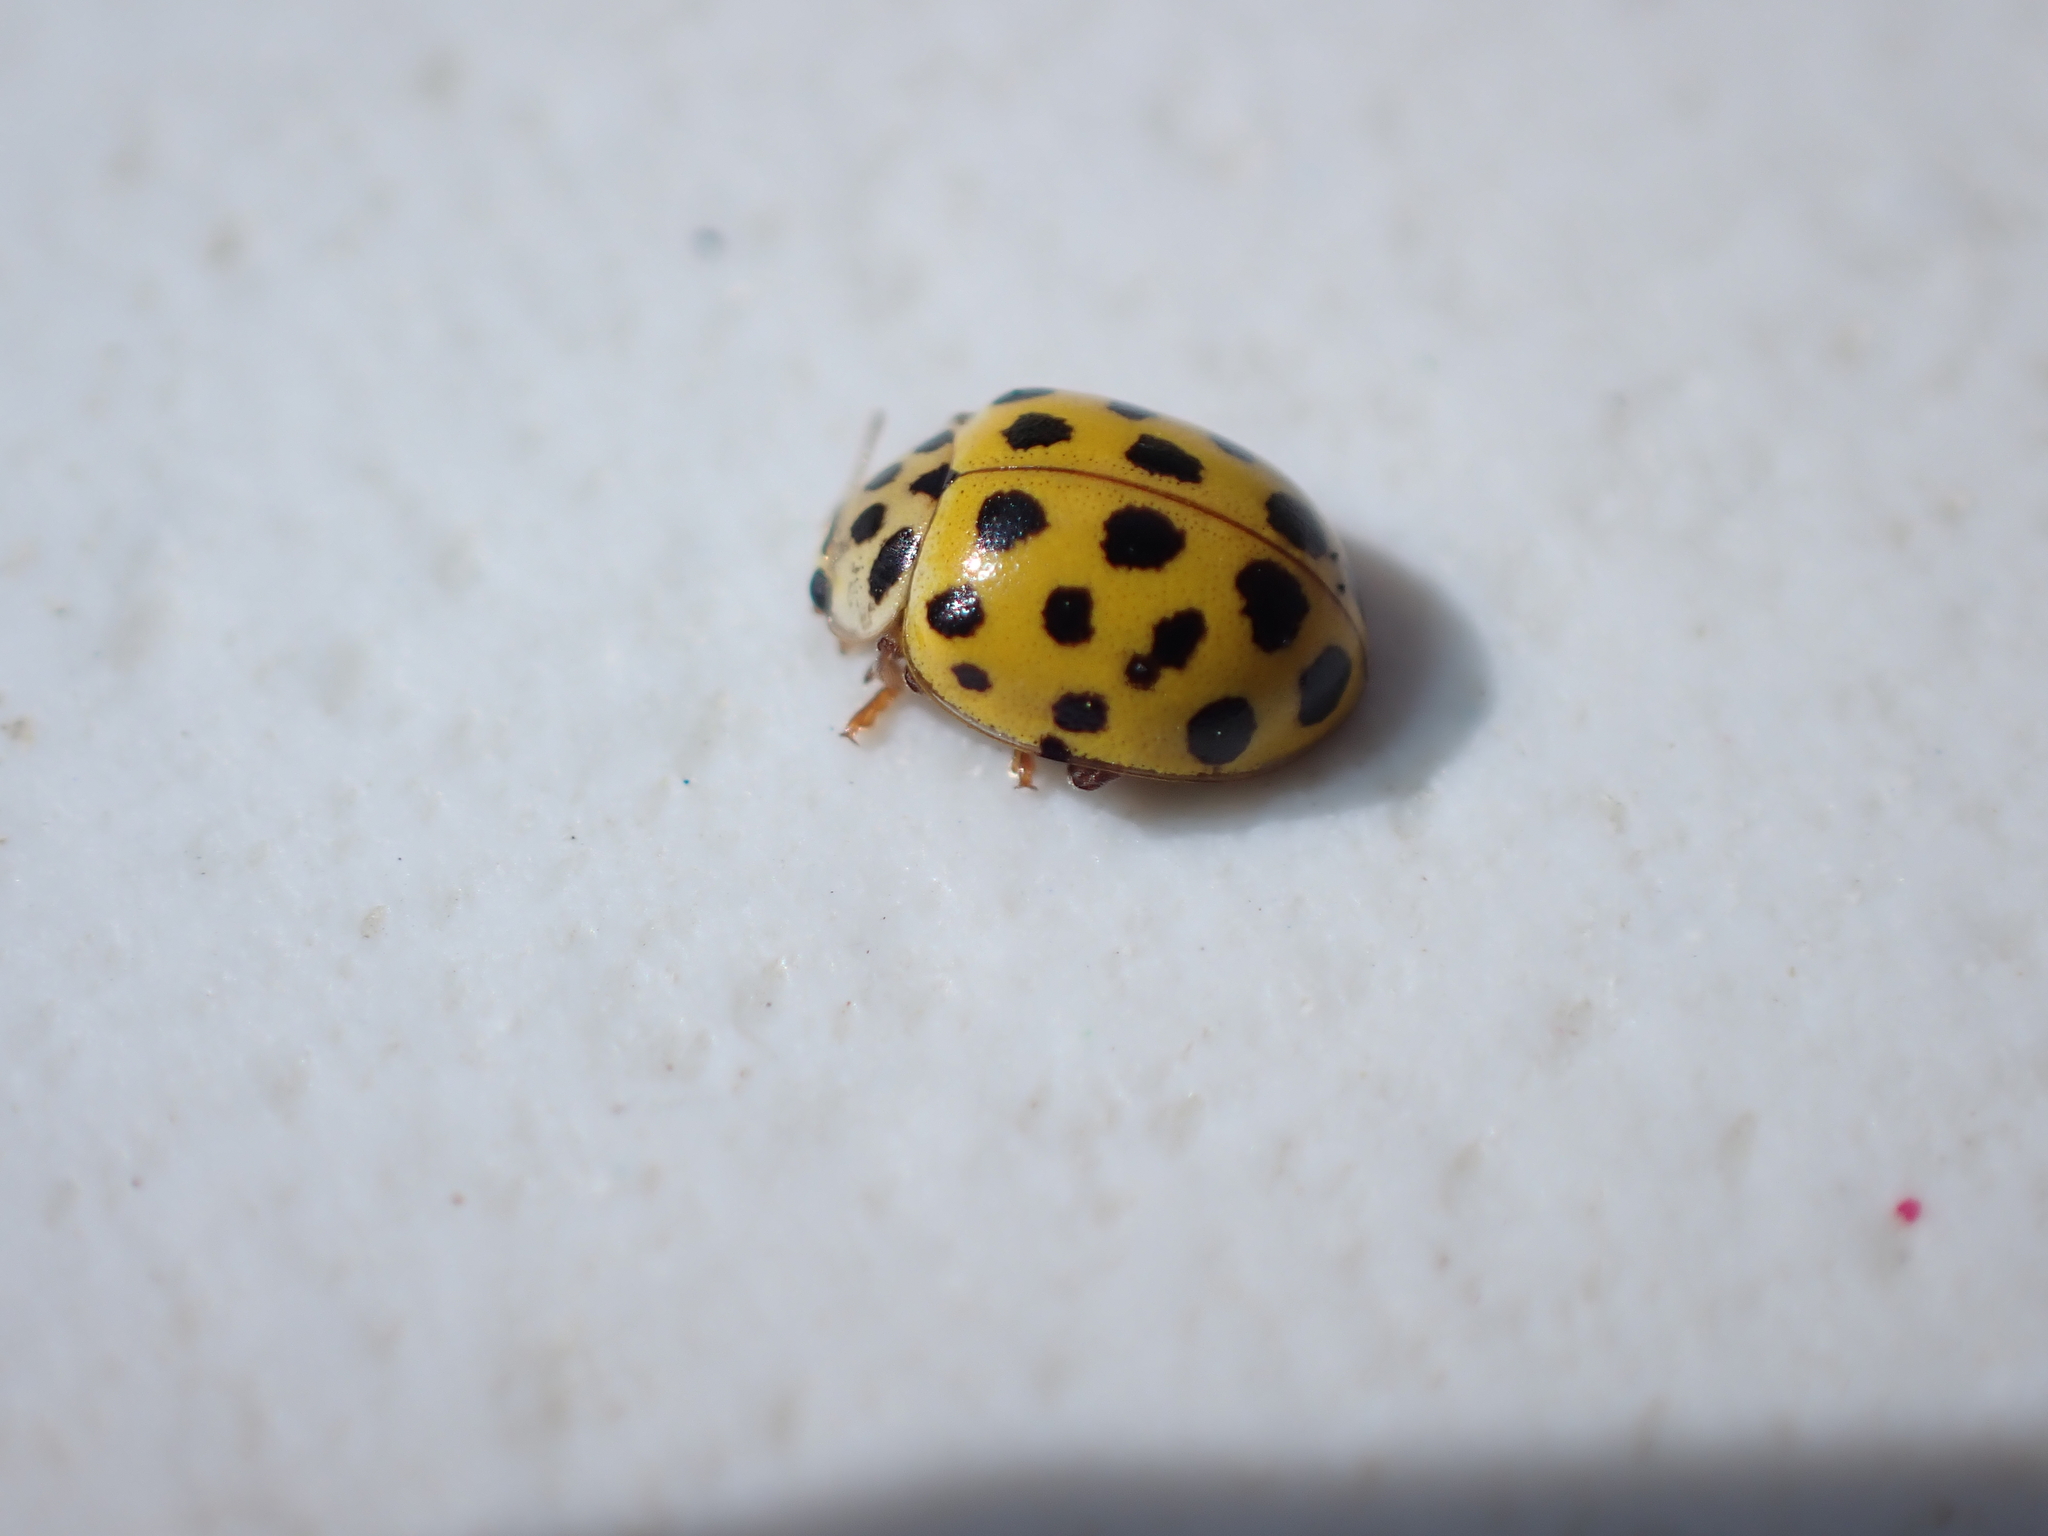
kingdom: Animalia
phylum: Arthropoda
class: Insecta
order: Coleoptera
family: Coccinellidae
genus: Psyllobora
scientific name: Psyllobora vigintiduopunctata
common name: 22-spot ladybird
